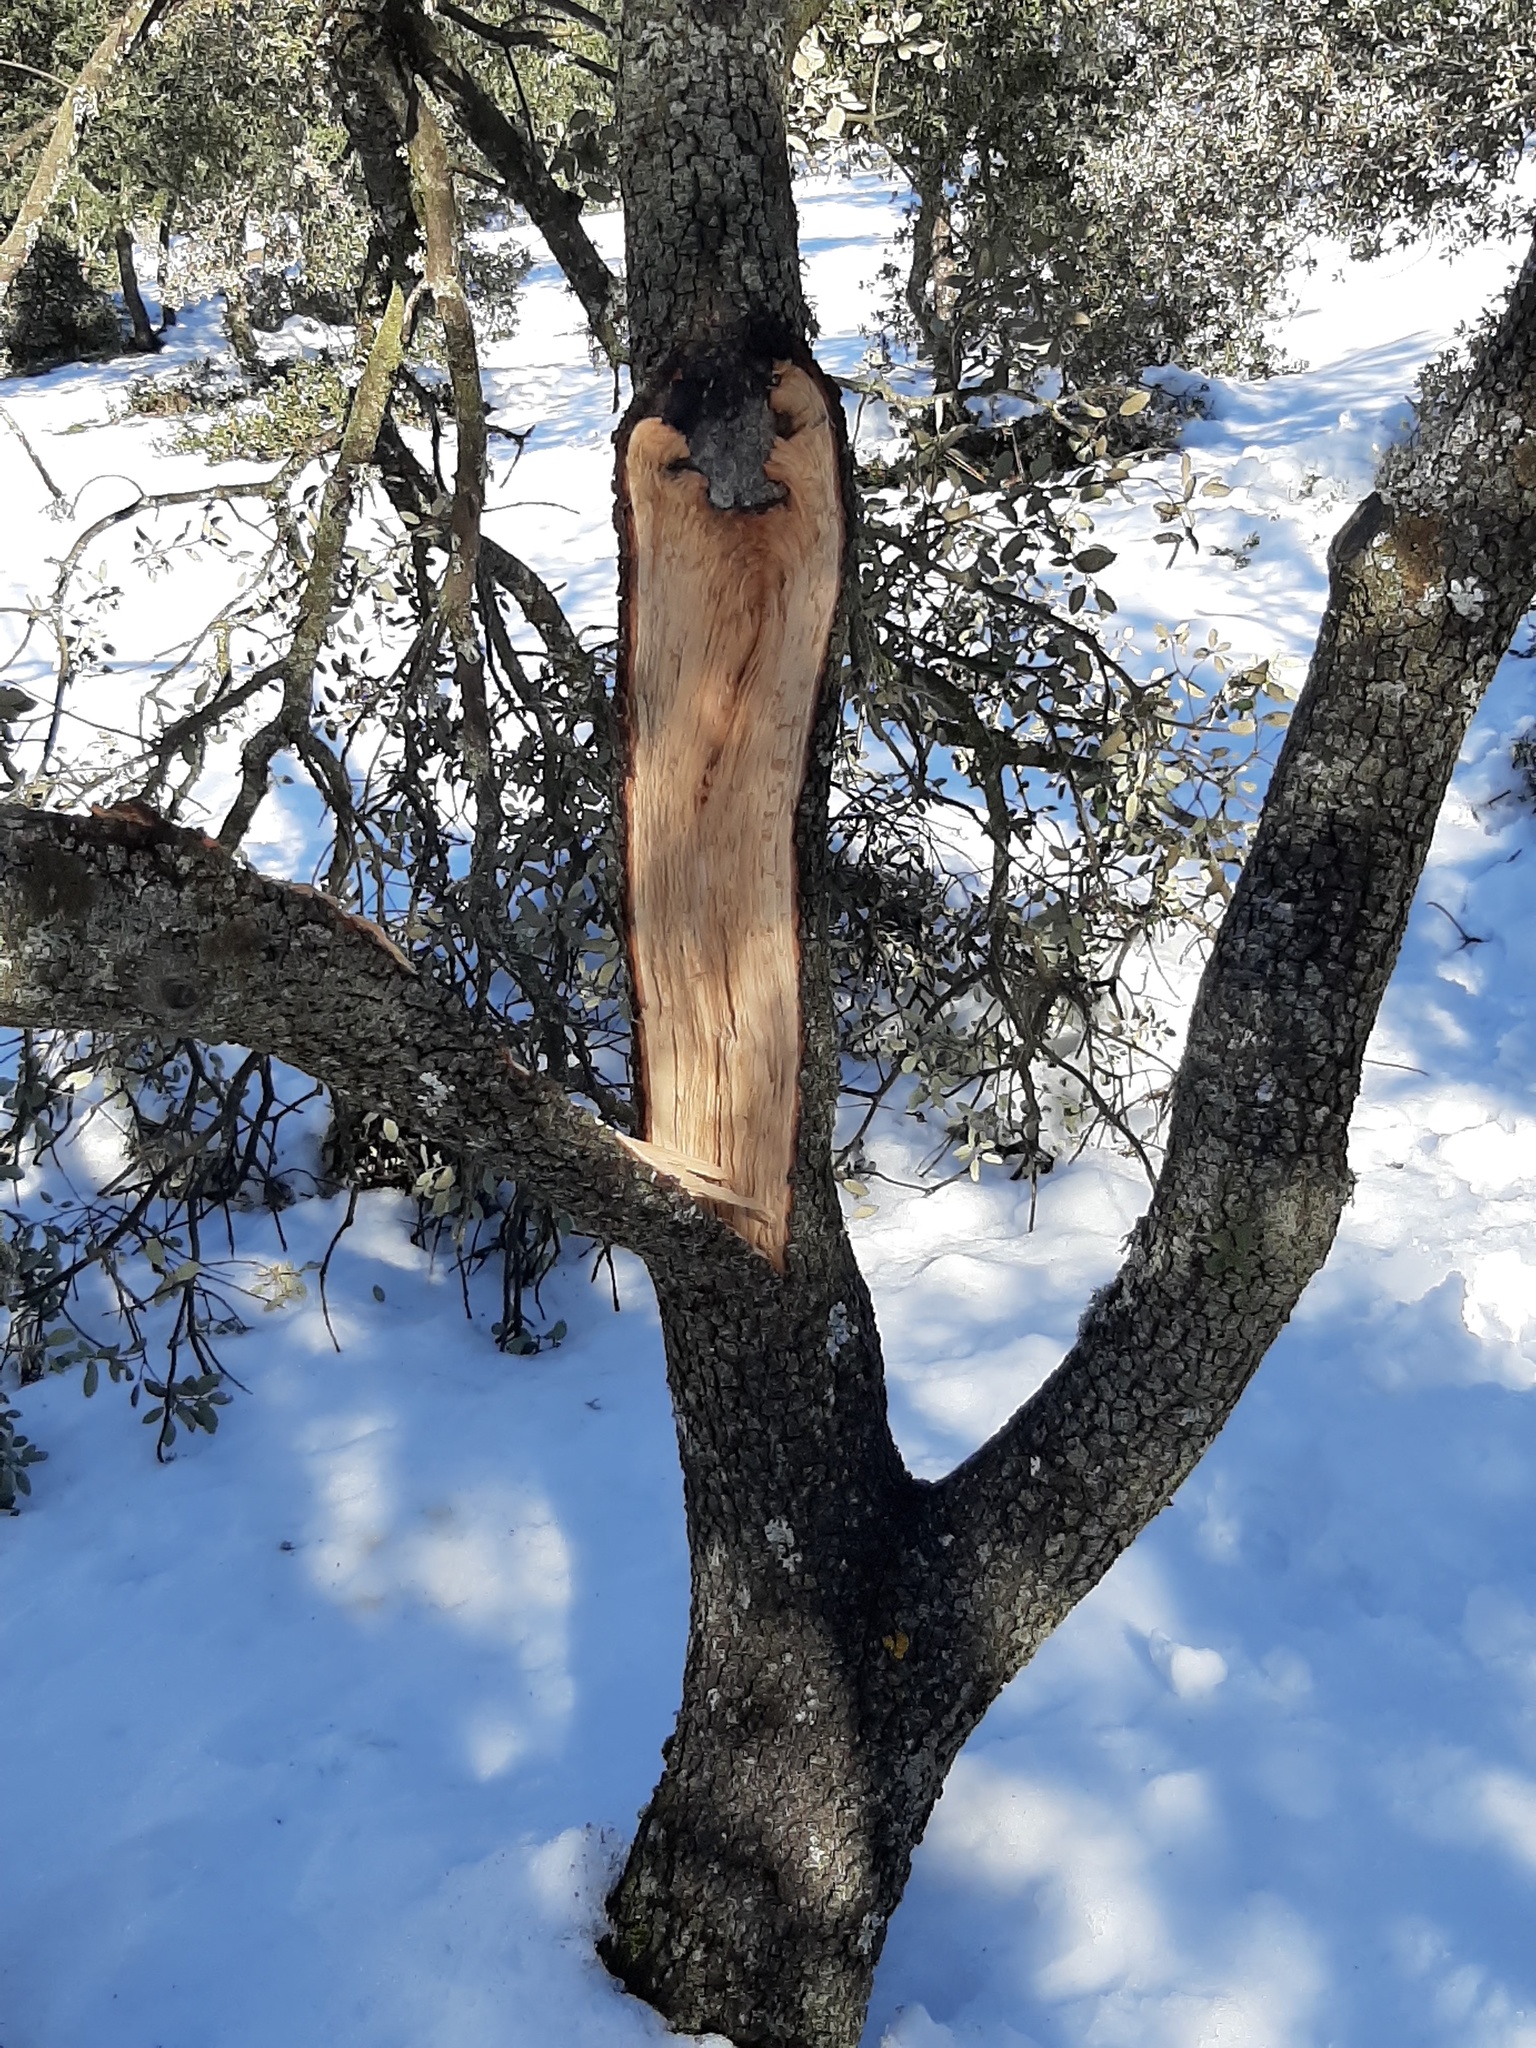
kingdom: Plantae
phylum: Tracheophyta
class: Magnoliopsida
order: Fagales
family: Fagaceae
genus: Quercus
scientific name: Quercus rotundifolia
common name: Holm oak
